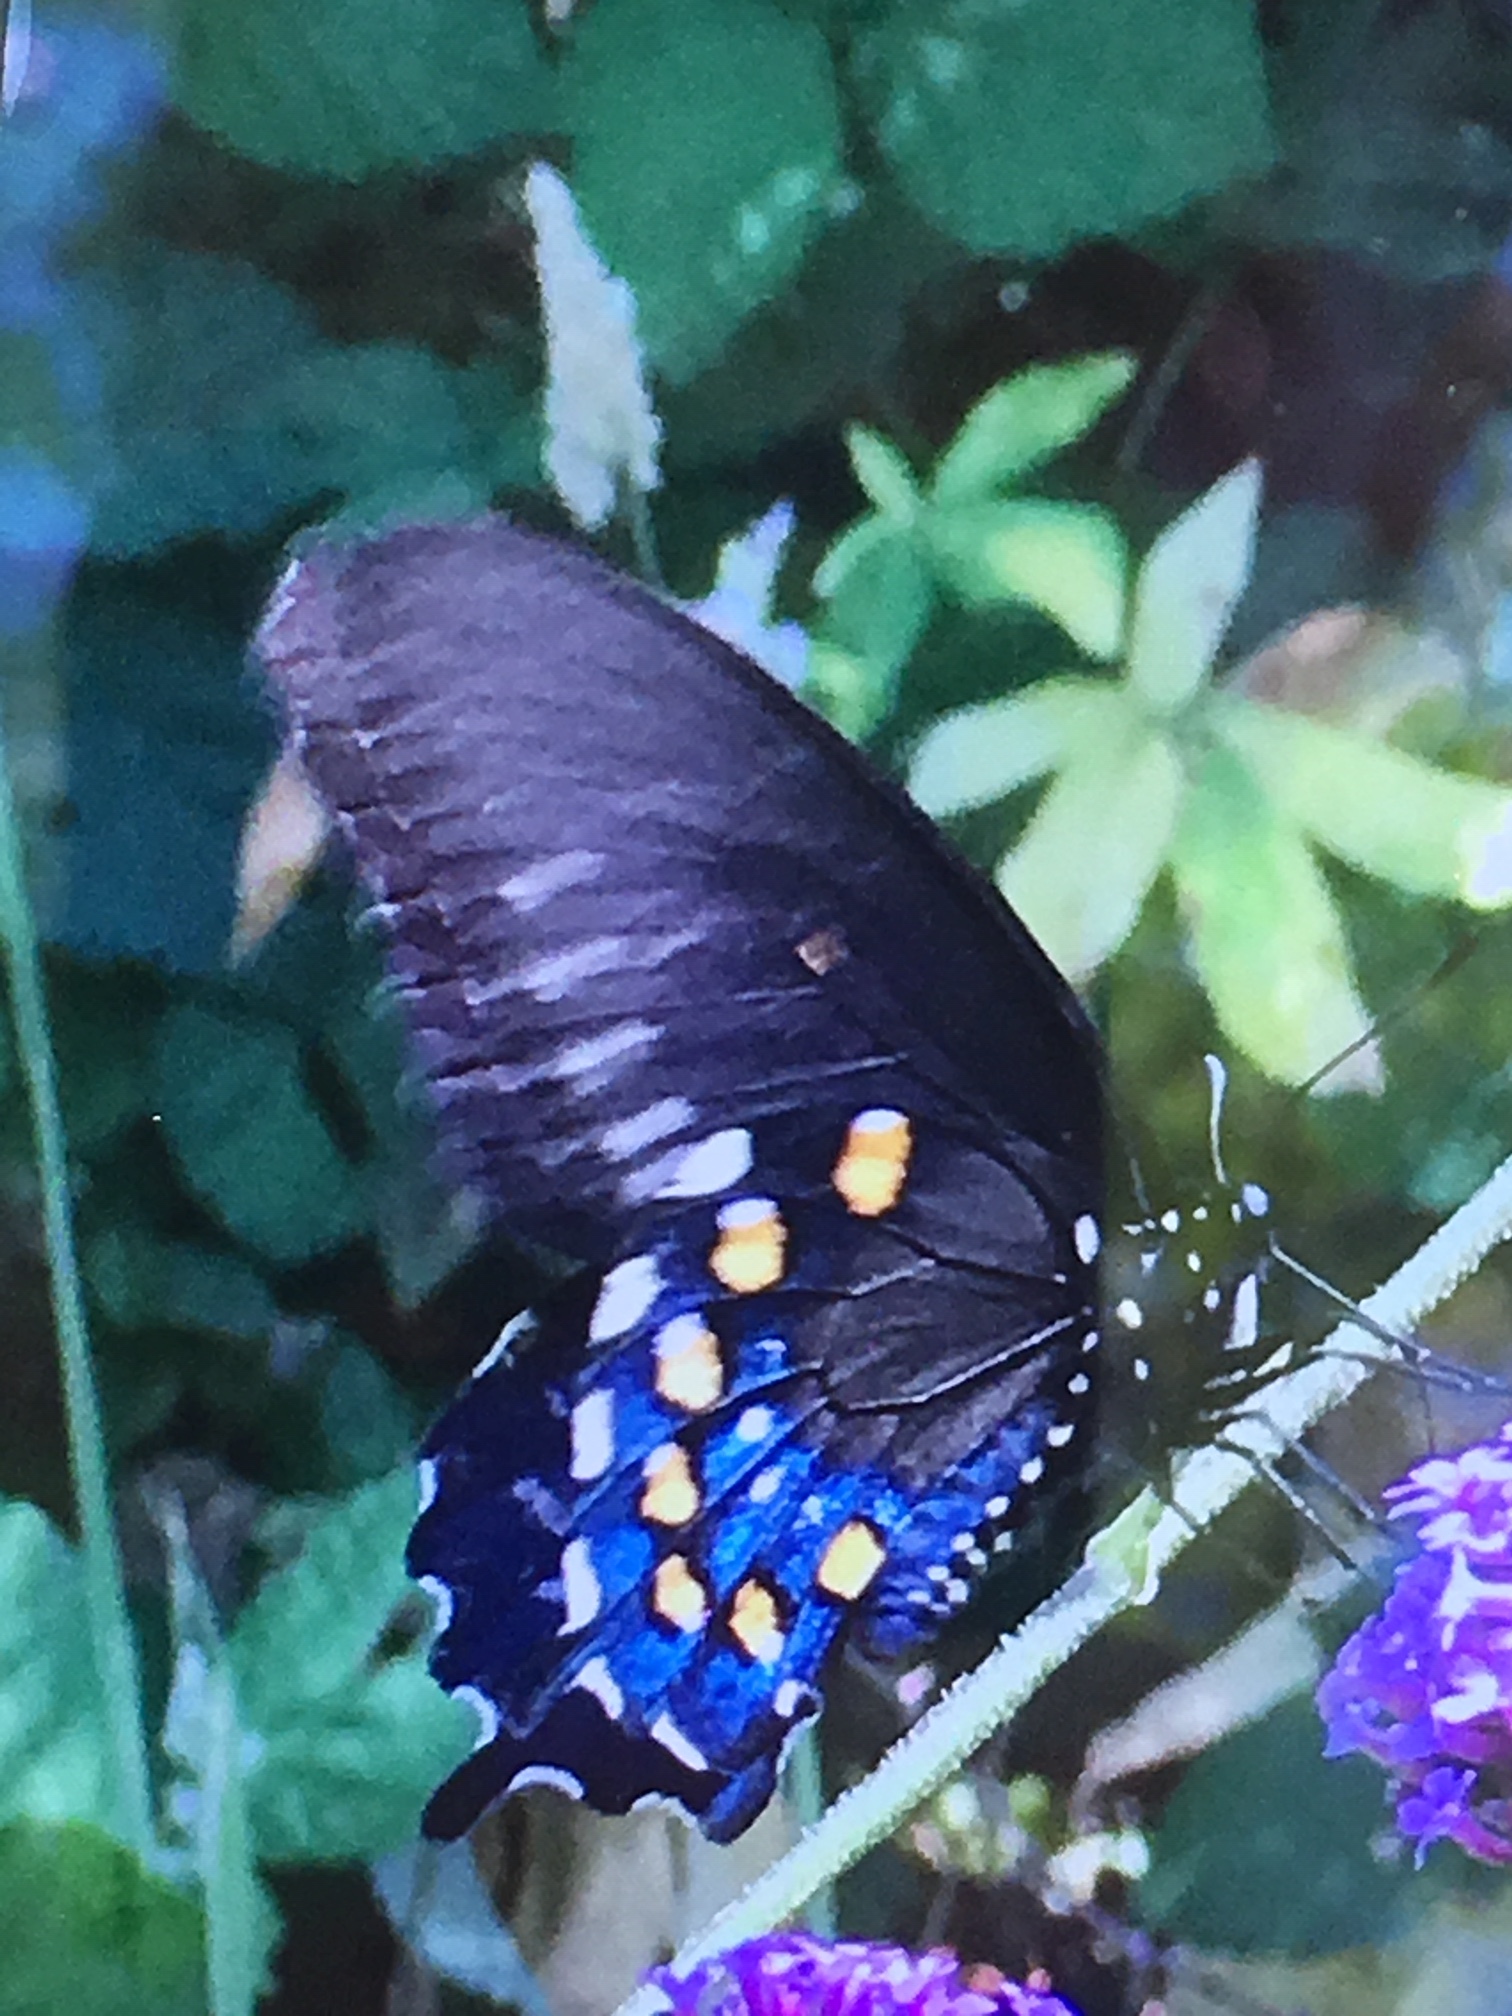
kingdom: Animalia
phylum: Arthropoda
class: Insecta
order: Lepidoptera
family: Papilionidae
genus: Battus
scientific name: Battus philenor
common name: Pipevine swallowtail
